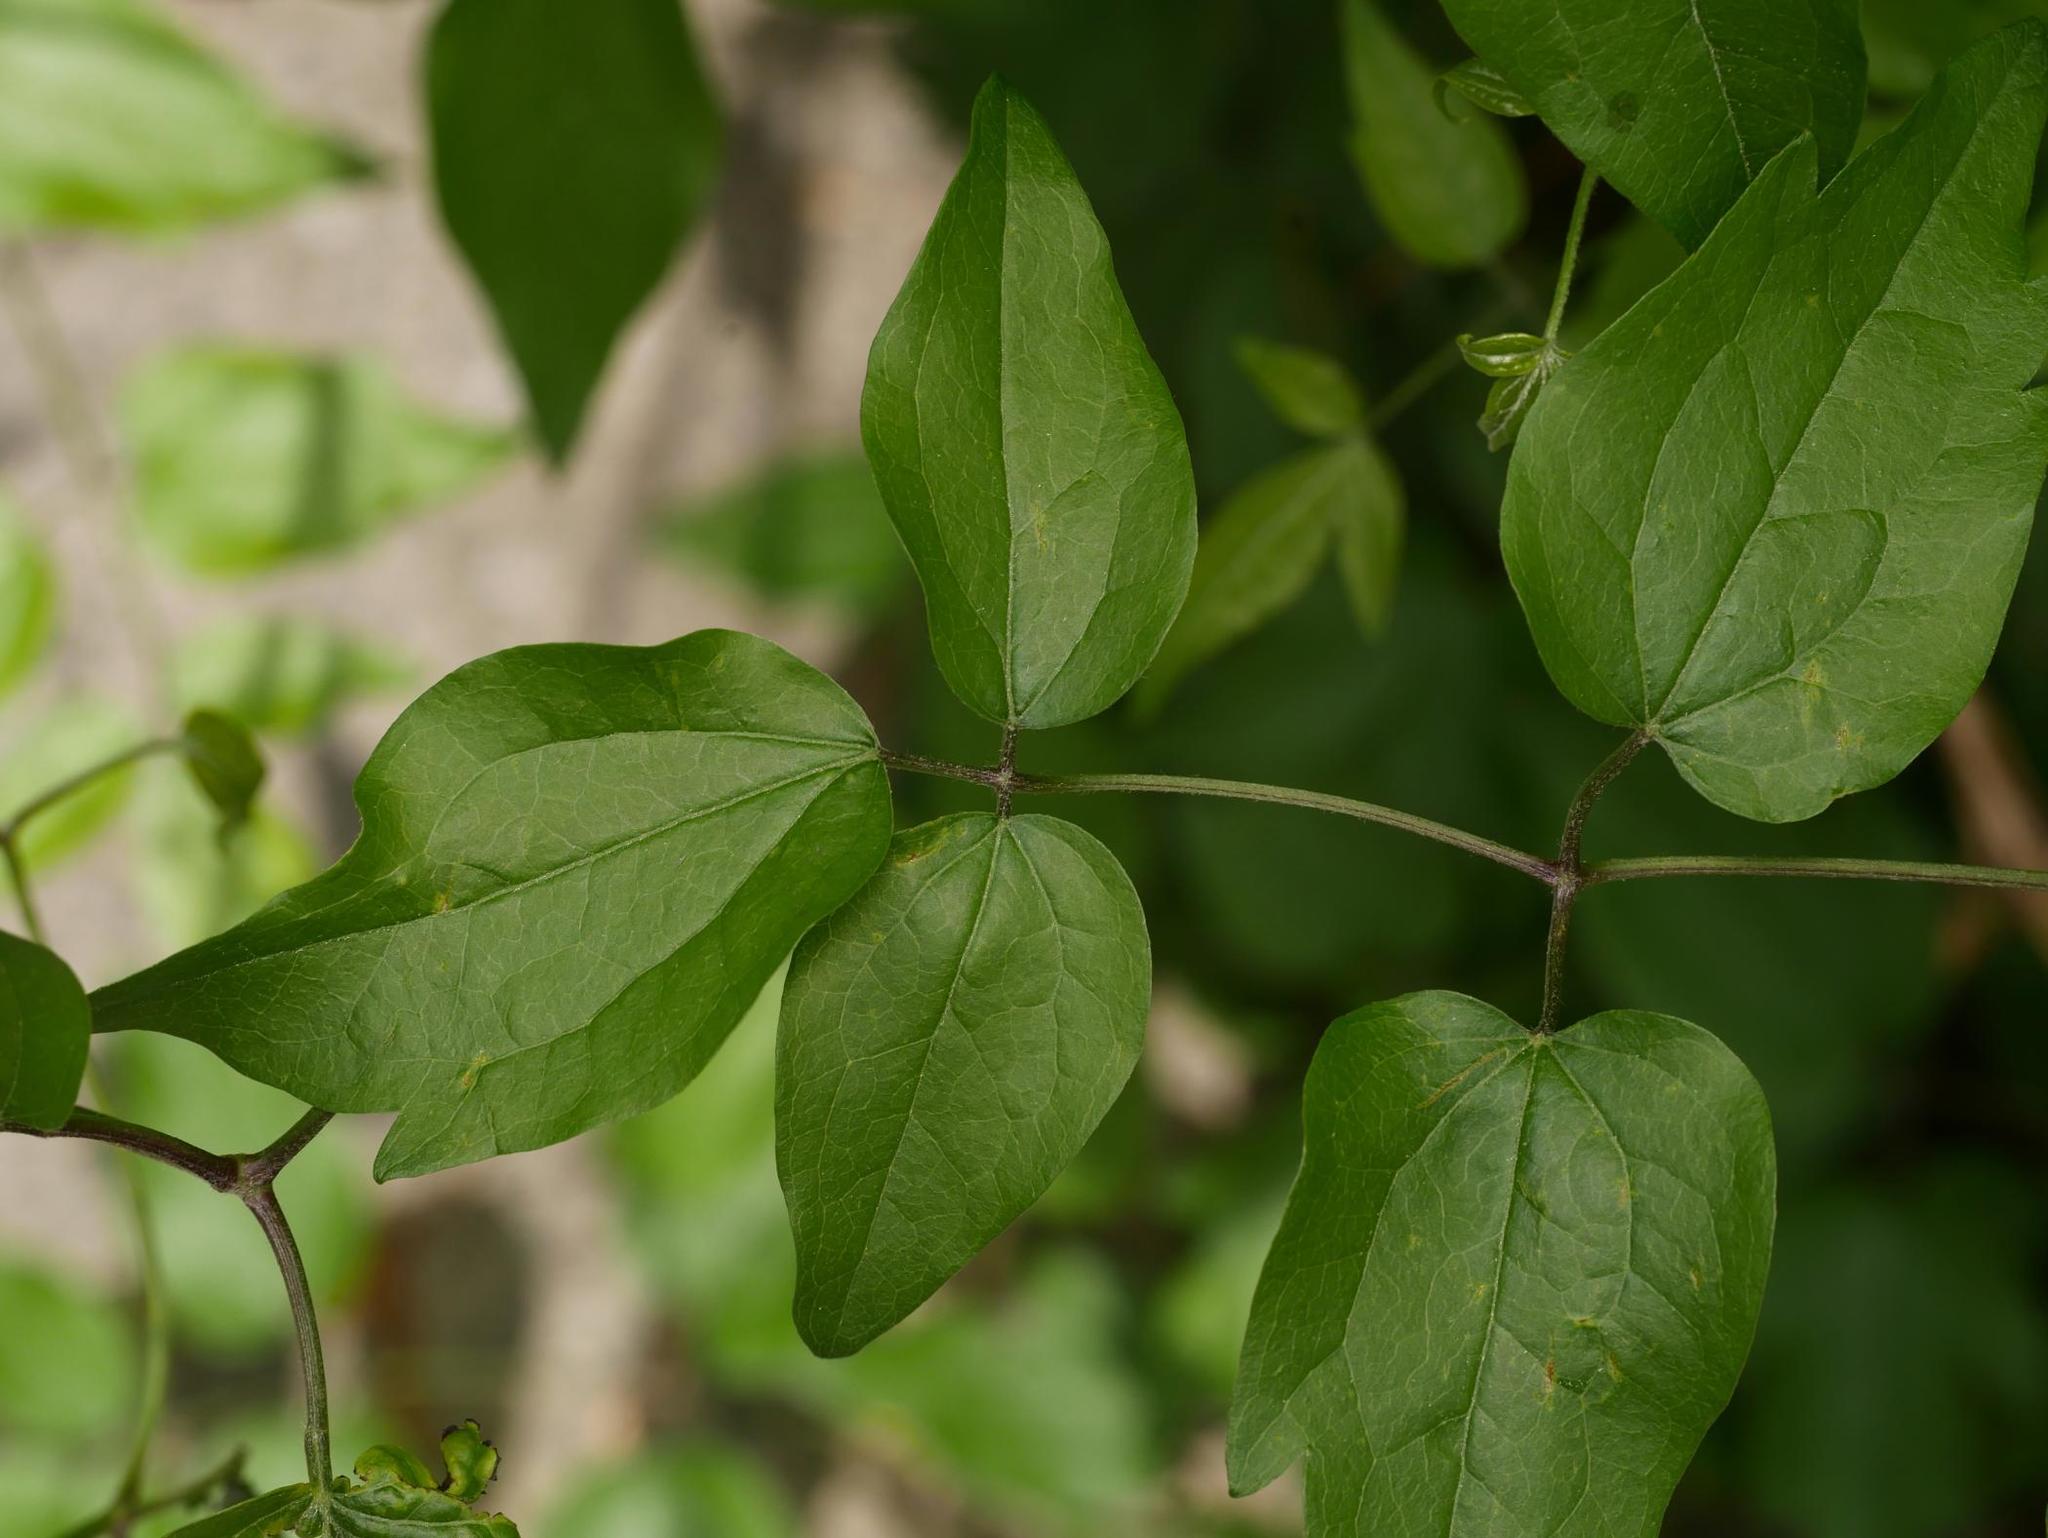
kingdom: Plantae
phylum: Tracheophyta
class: Magnoliopsida
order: Ranunculales
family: Ranunculaceae
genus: Clematis
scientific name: Clematis vitalba
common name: Evergreen clematis
